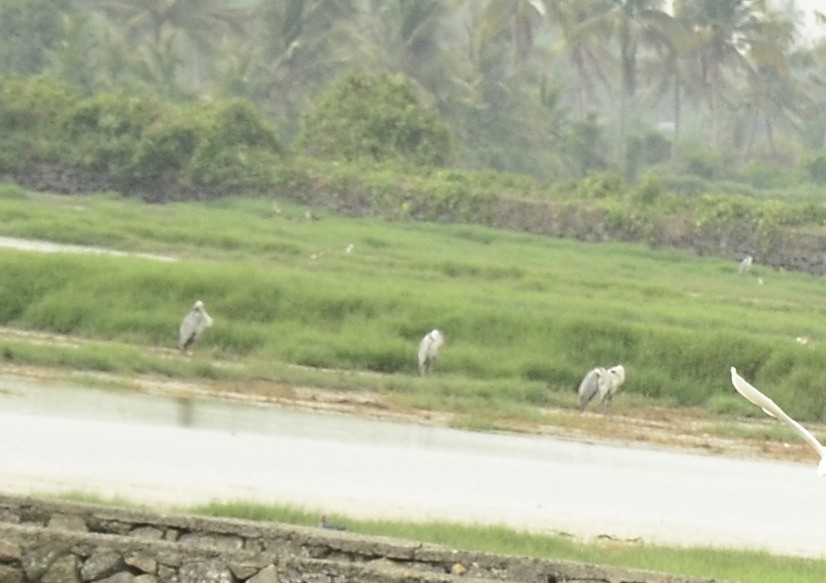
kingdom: Animalia
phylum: Chordata
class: Aves
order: Pelecaniformes
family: Ardeidae
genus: Ardea
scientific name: Ardea cinerea
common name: Grey heron
